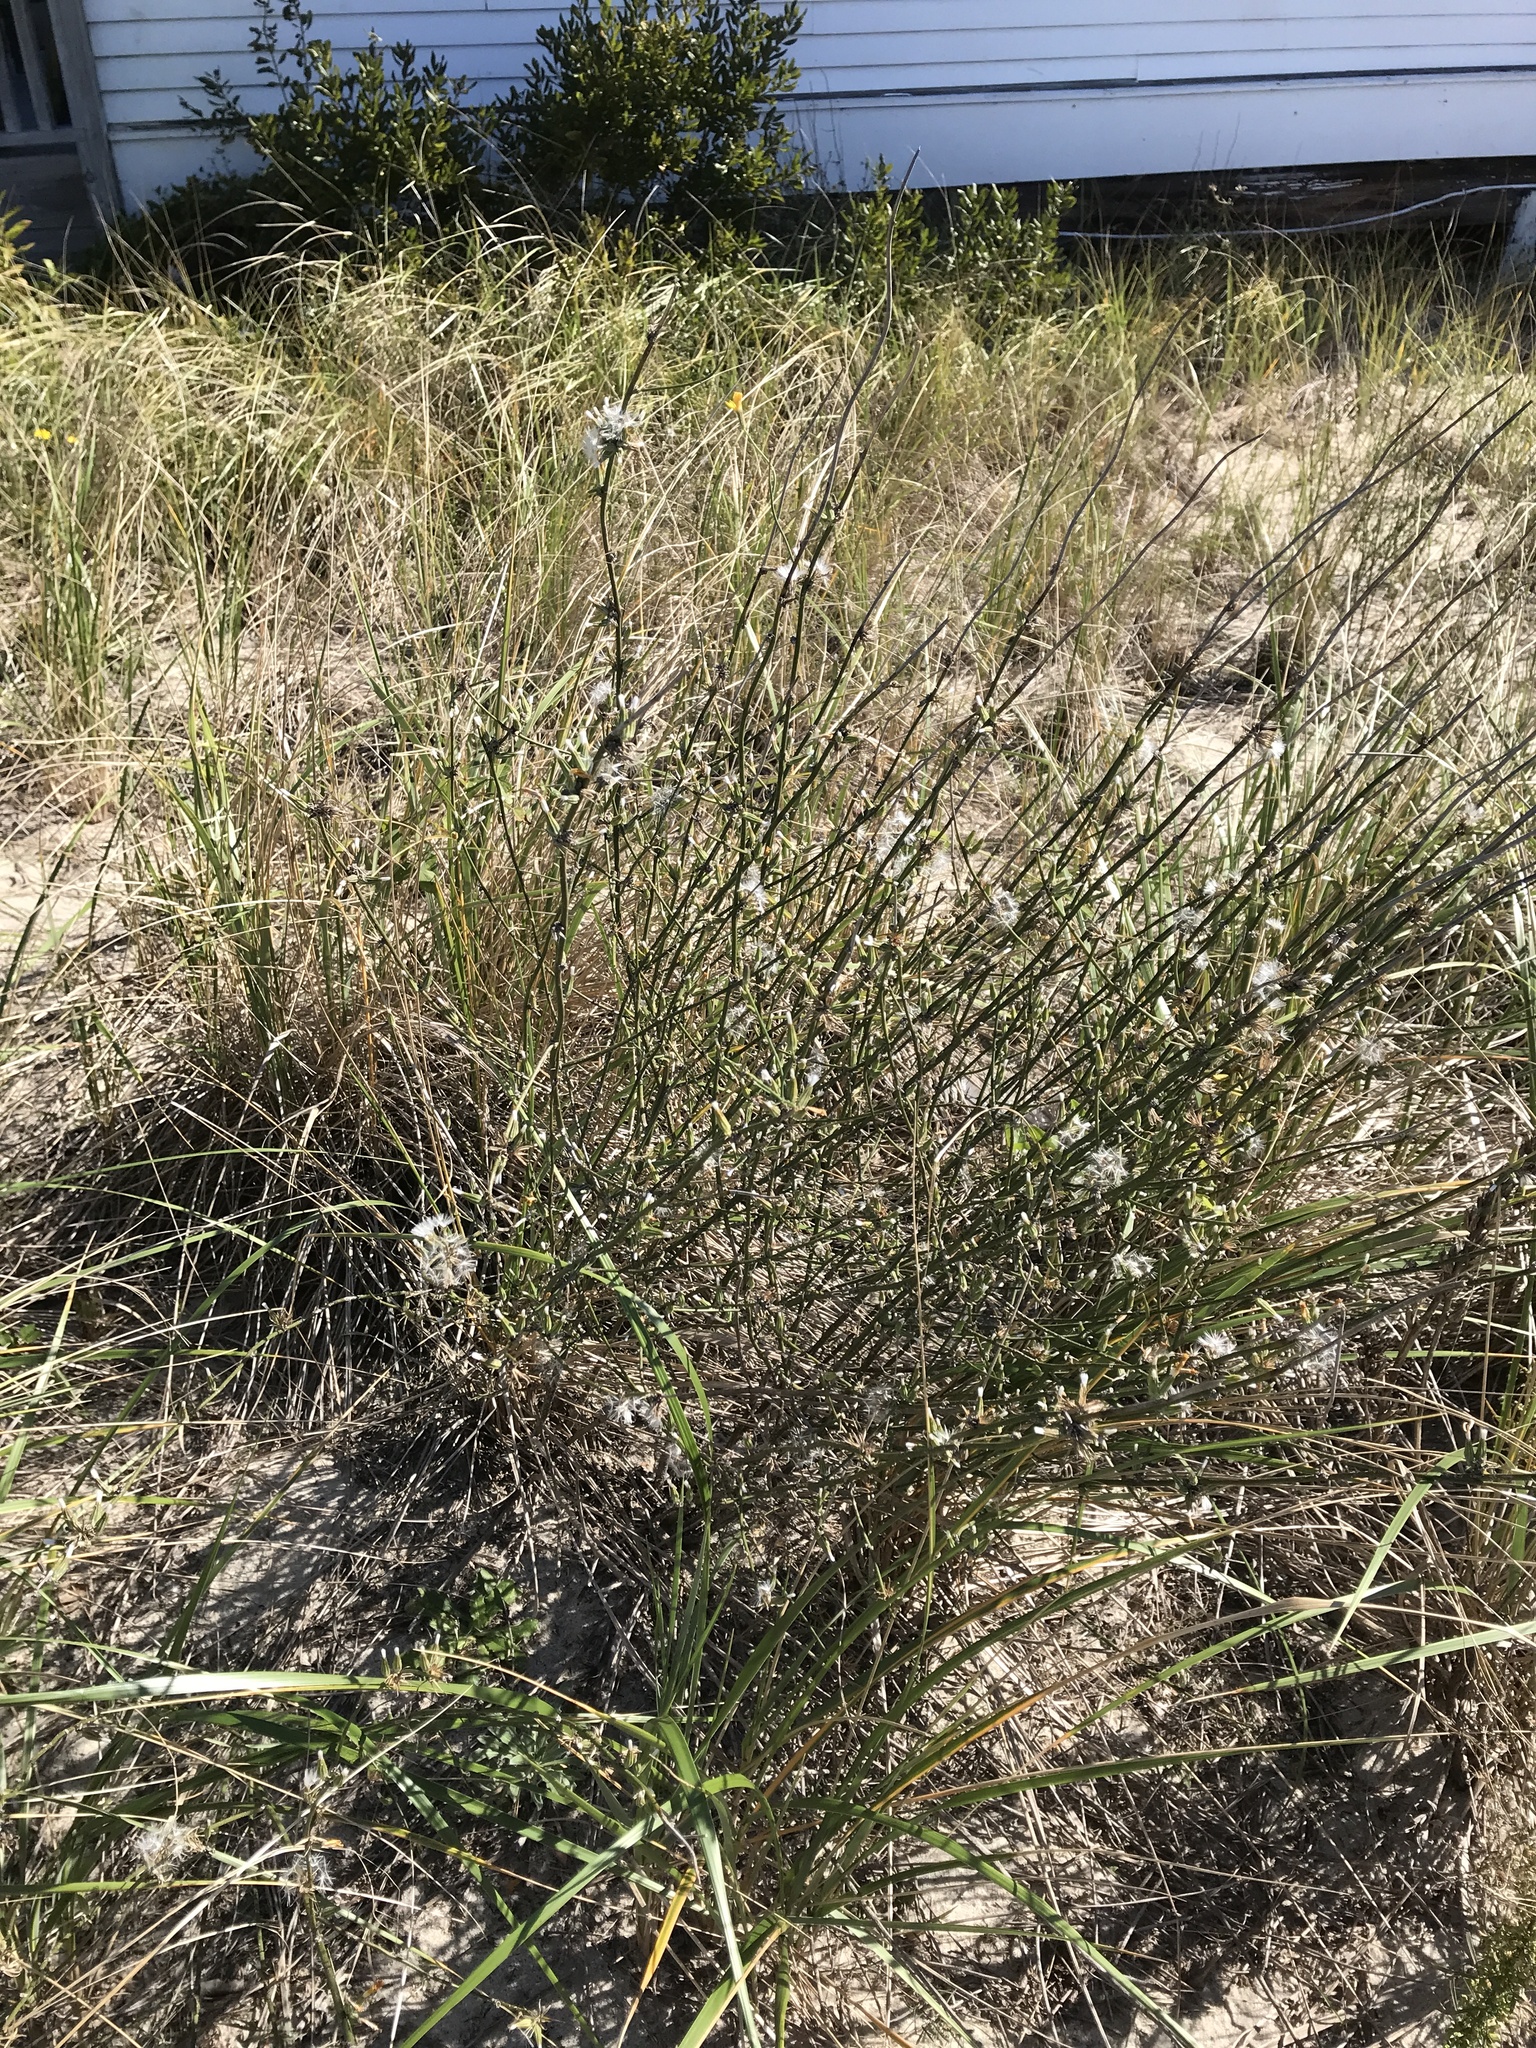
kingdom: Plantae
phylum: Tracheophyta
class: Magnoliopsida
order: Asterales
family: Asteraceae
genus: Chondrilla
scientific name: Chondrilla juncea
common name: Skeleton weed
